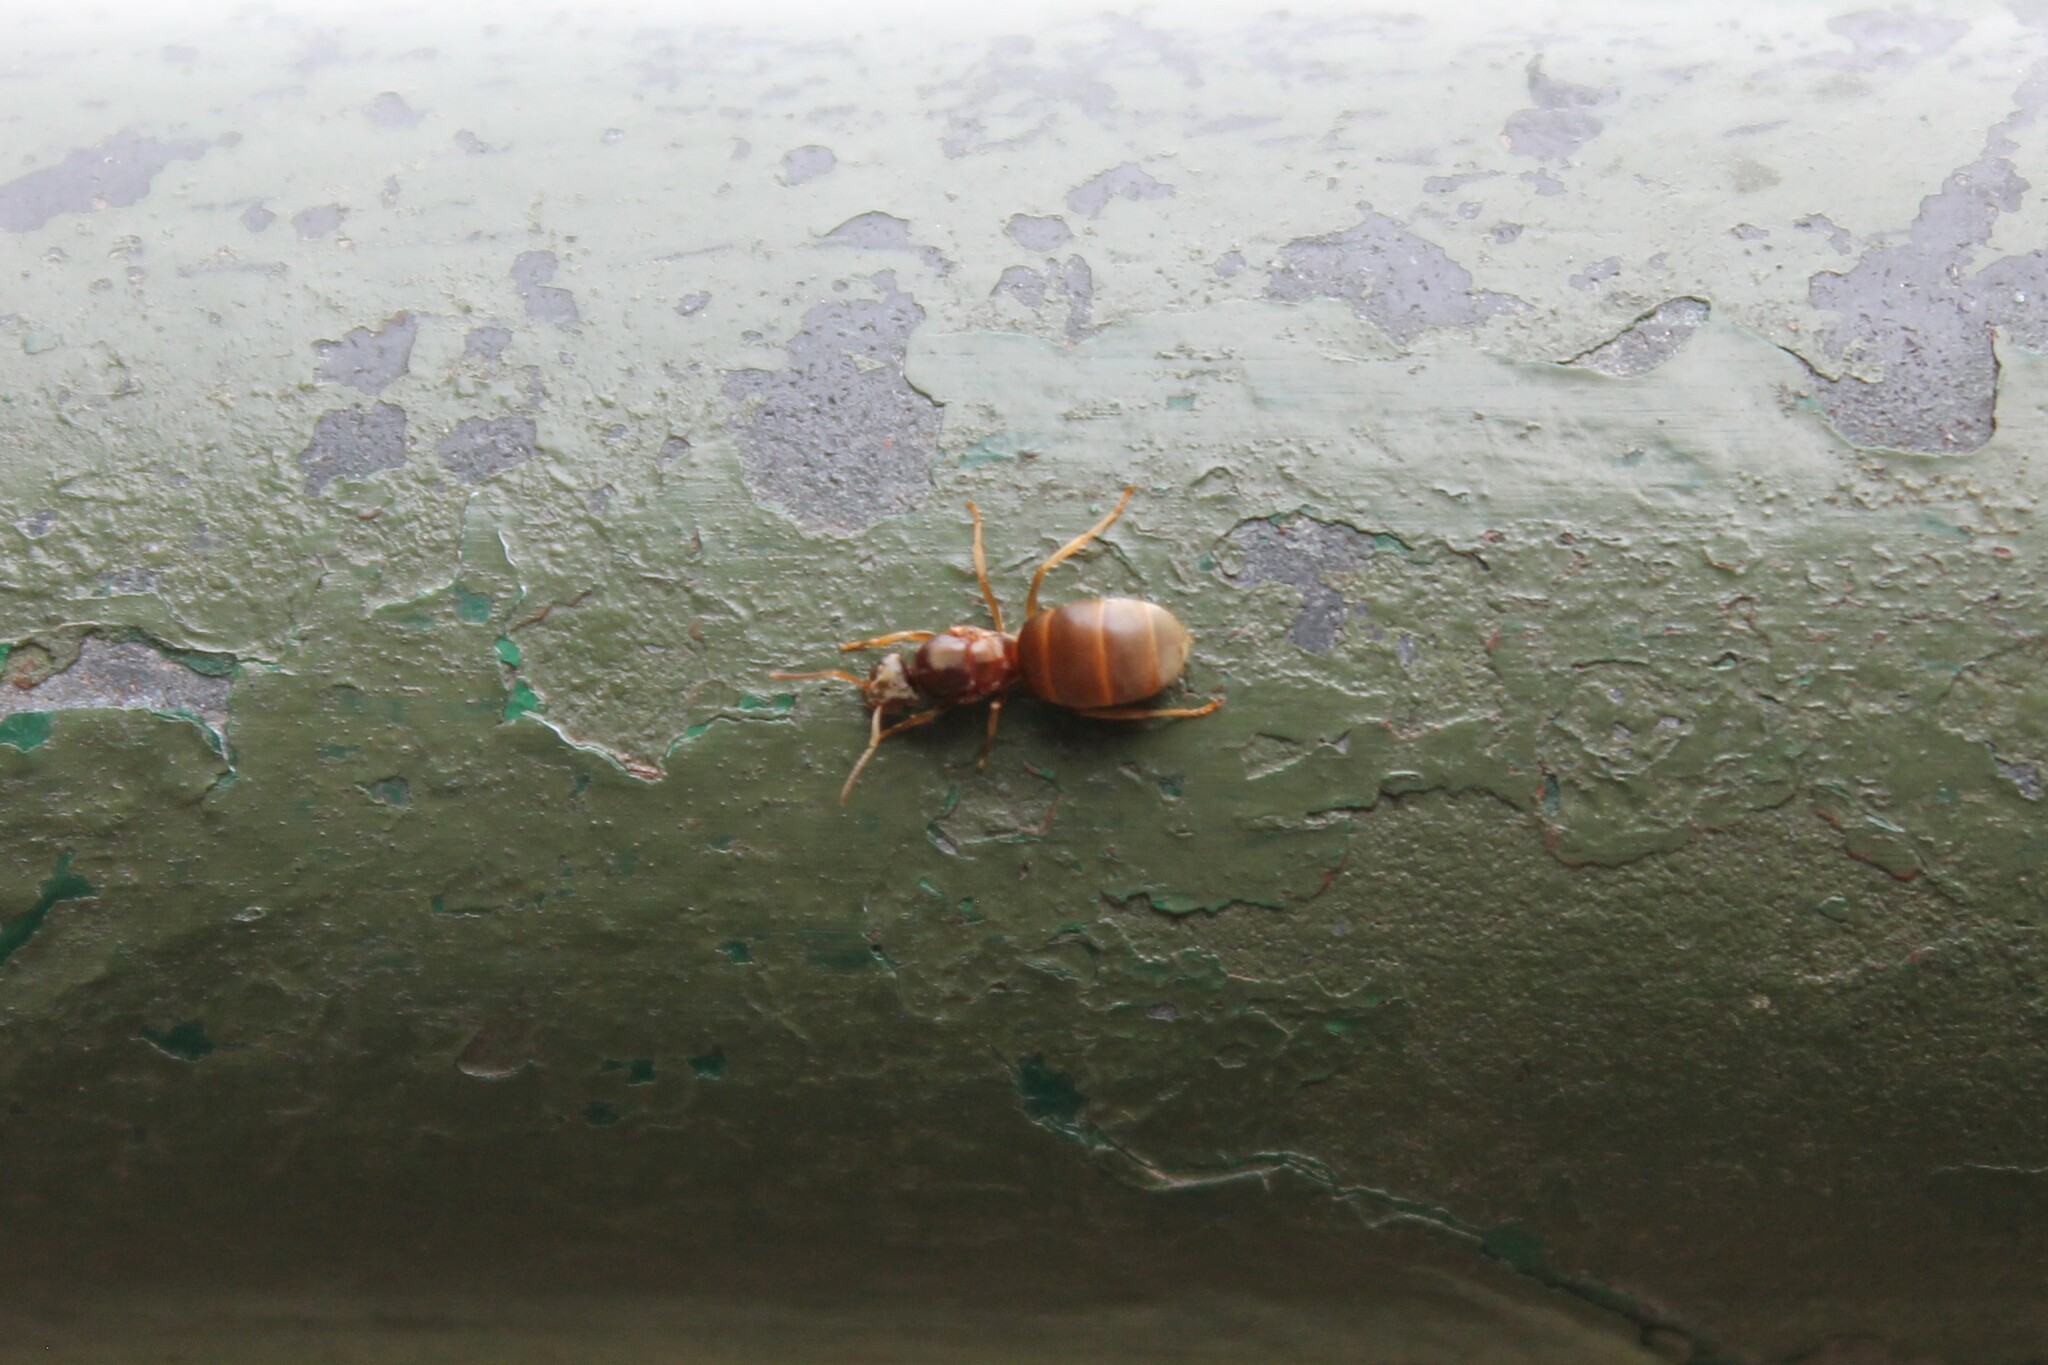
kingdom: Animalia
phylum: Arthropoda
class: Insecta
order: Hymenoptera
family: Formicidae
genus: Lasius
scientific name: Lasius neoniger
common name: Turfgrass ant
